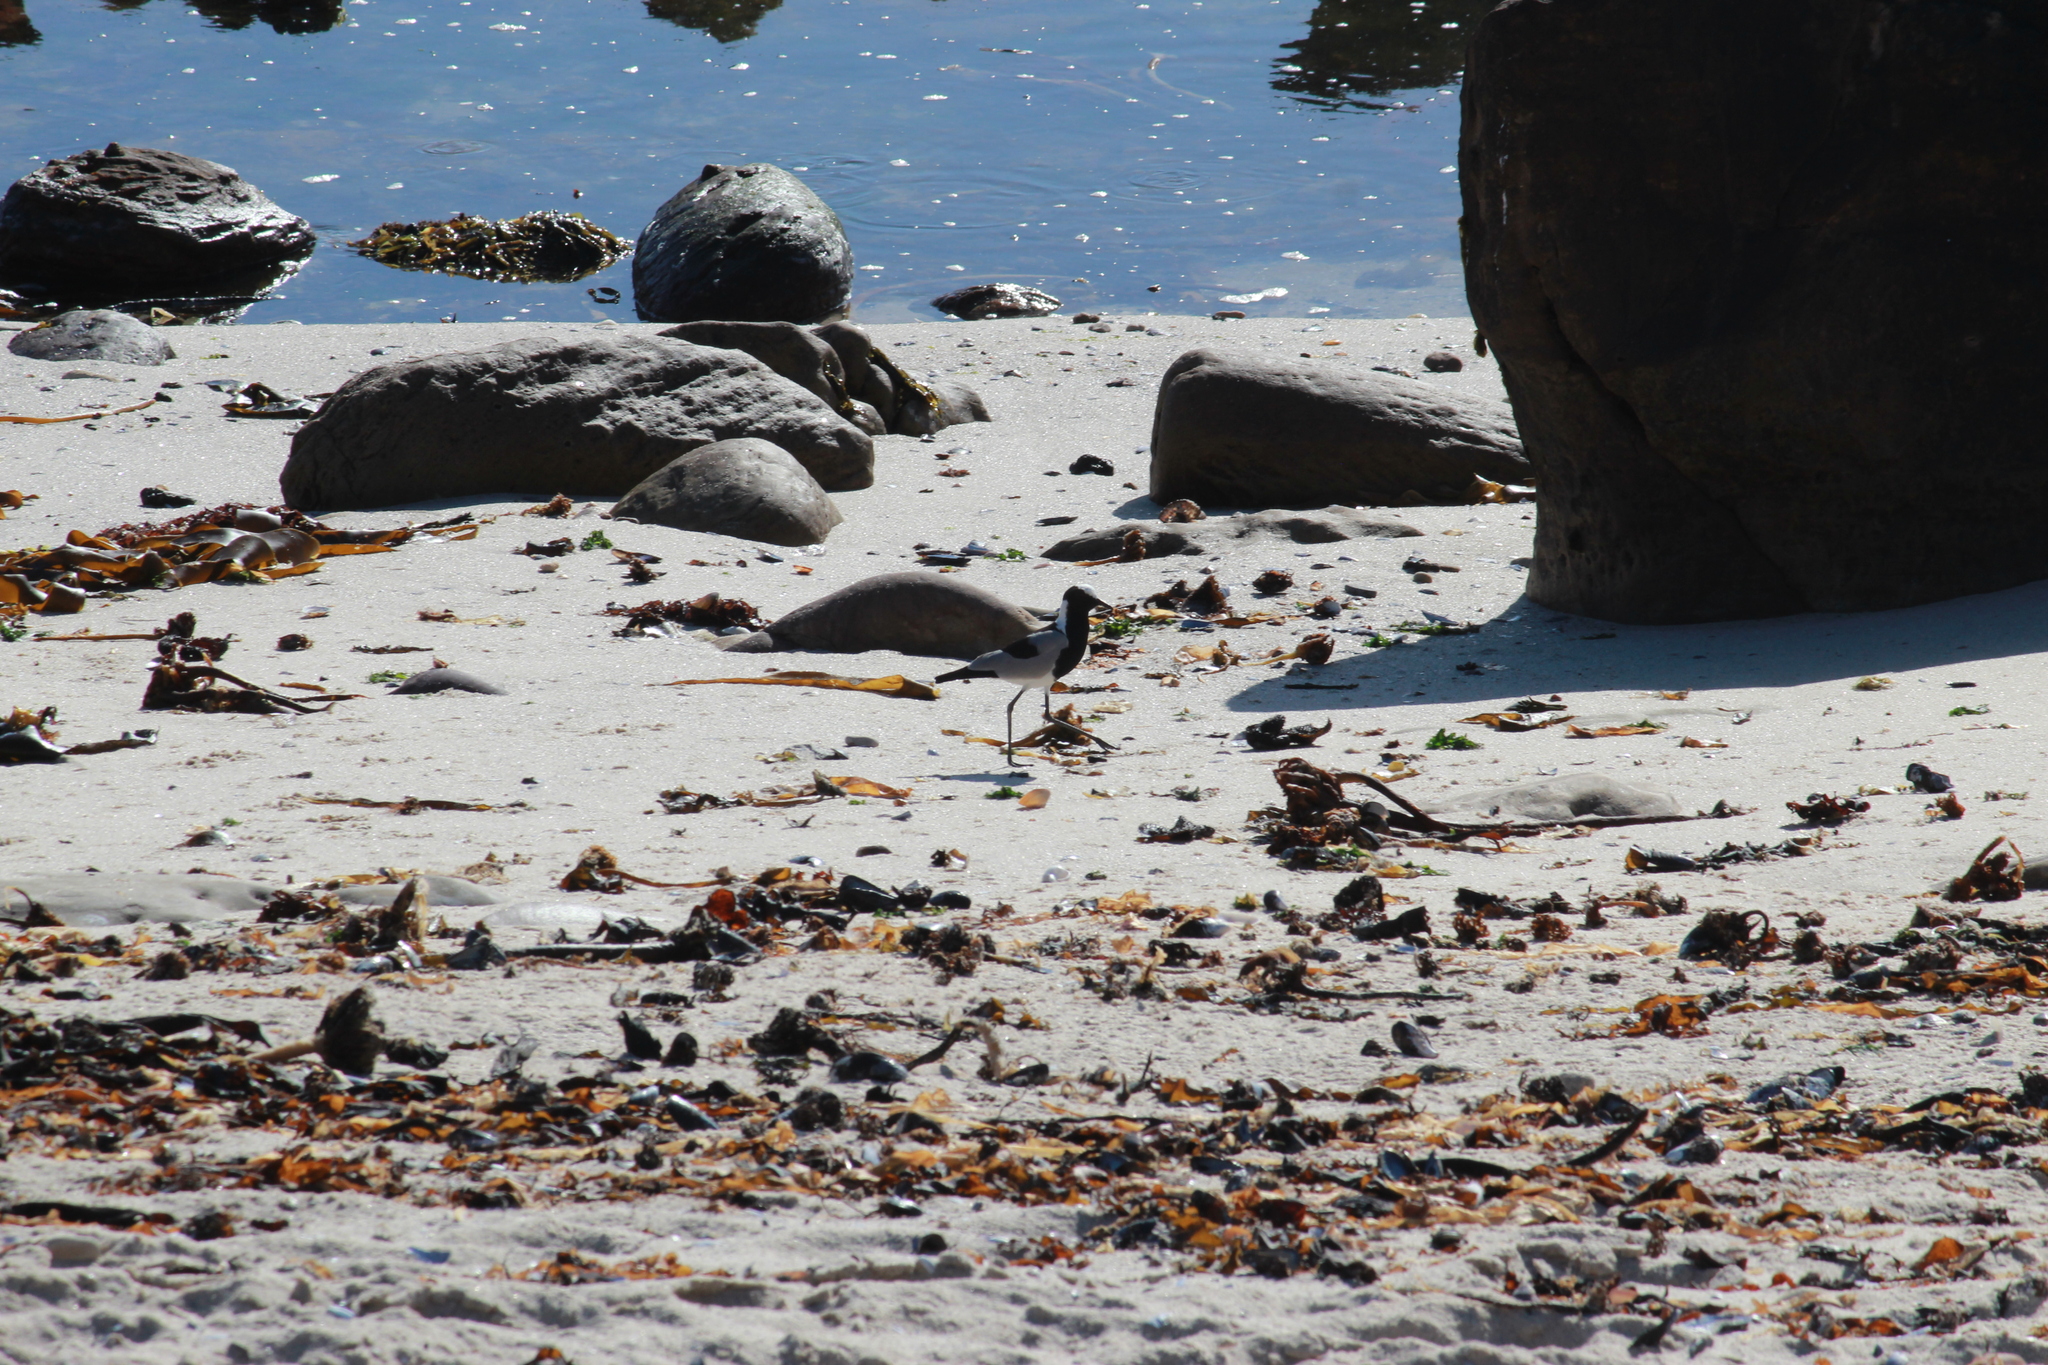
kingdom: Animalia
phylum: Chordata
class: Aves
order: Charadriiformes
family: Charadriidae
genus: Vanellus
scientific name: Vanellus armatus
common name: Blacksmith lapwing
